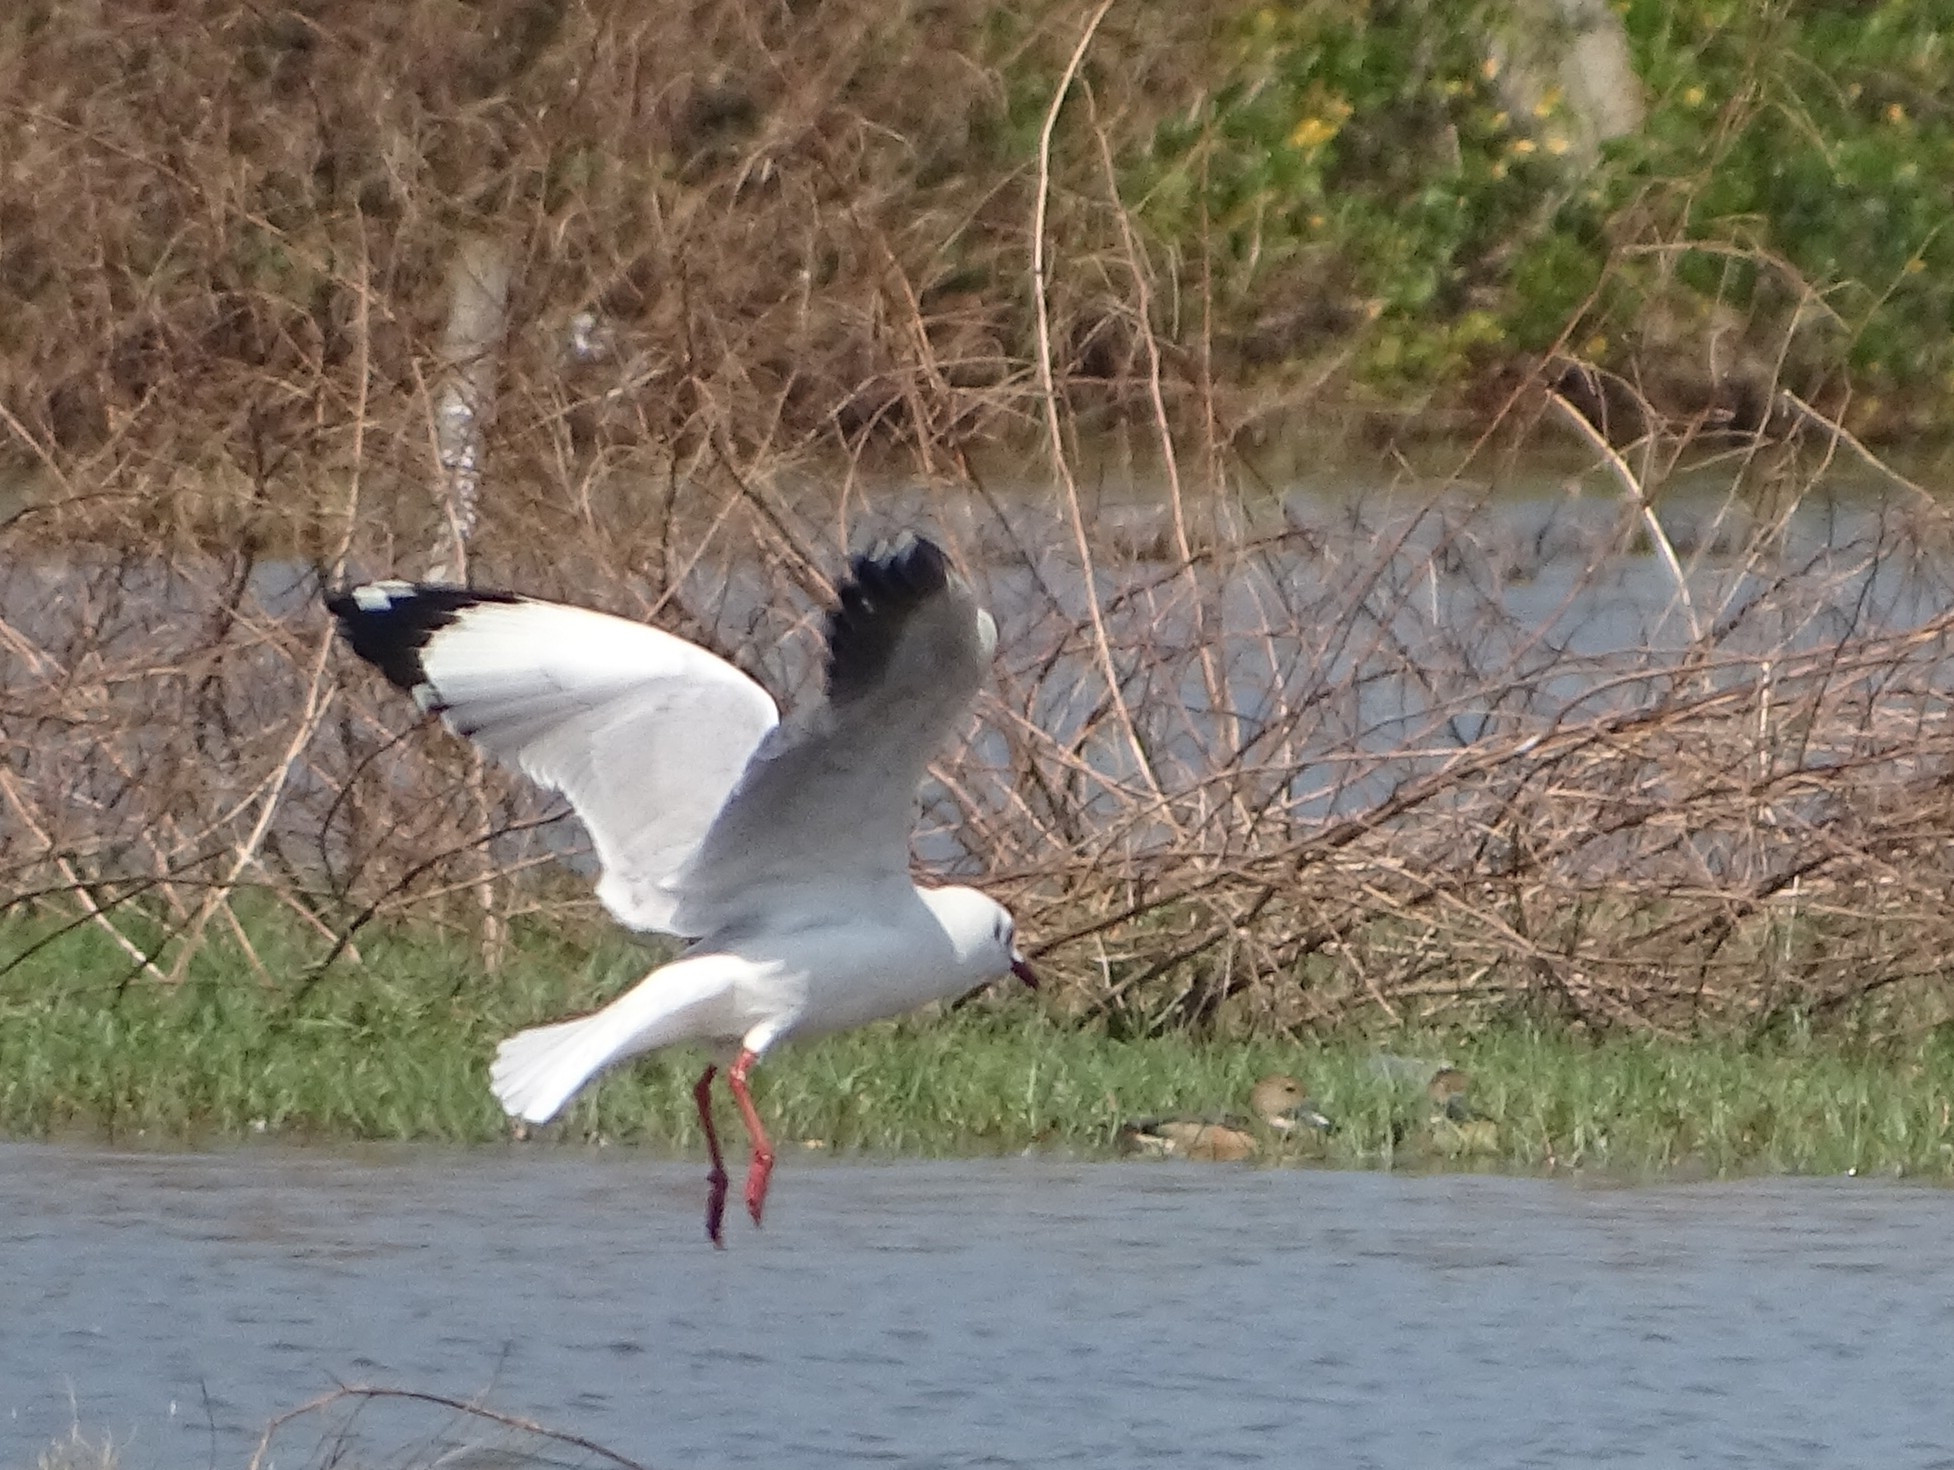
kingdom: Animalia
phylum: Chordata
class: Aves
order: Charadriiformes
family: Laridae
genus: Chroicocephalus
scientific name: Chroicocephalus brunnicephalus
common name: Brown-headed gull
